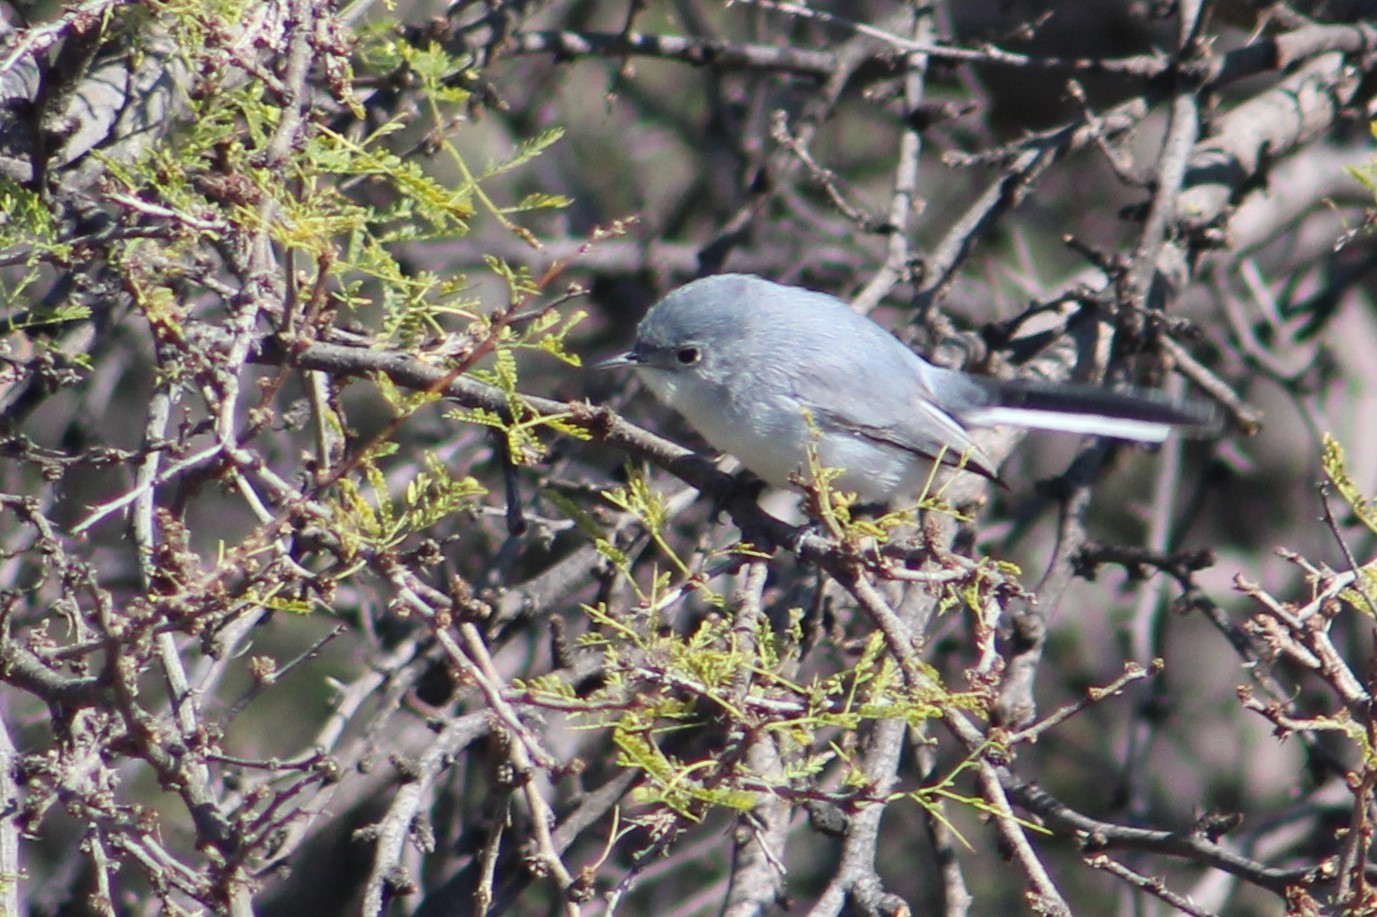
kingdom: Animalia
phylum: Chordata
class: Aves
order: Passeriformes
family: Polioptilidae
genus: Polioptila
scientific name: Polioptila caerulea
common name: Blue-gray gnatcatcher
